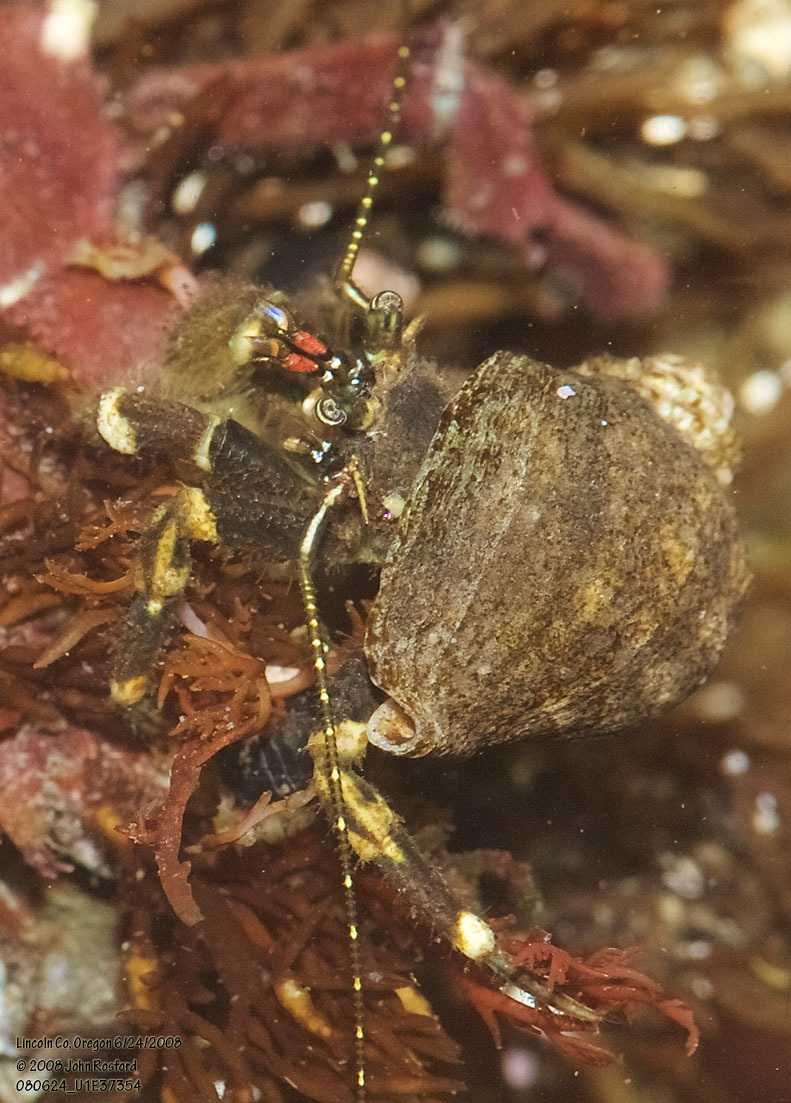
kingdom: Animalia
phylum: Arthropoda
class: Malacostraca
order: Decapoda
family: Paguridae
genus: Pagurus
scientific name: Pagurus hirsutiusculus
